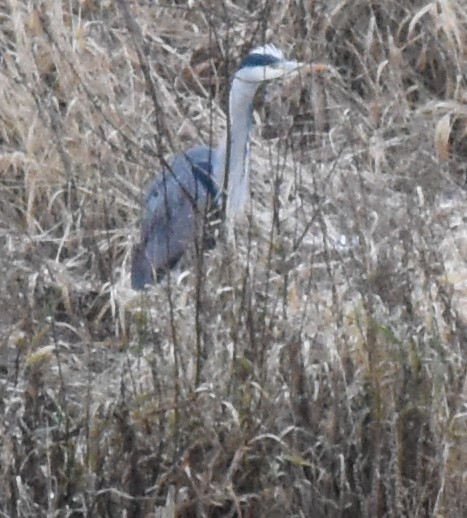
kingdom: Animalia
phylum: Chordata
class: Aves
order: Pelecaniformes
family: Ardeidae
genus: Ardea
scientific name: Ardea cinerea
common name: Grey heron
